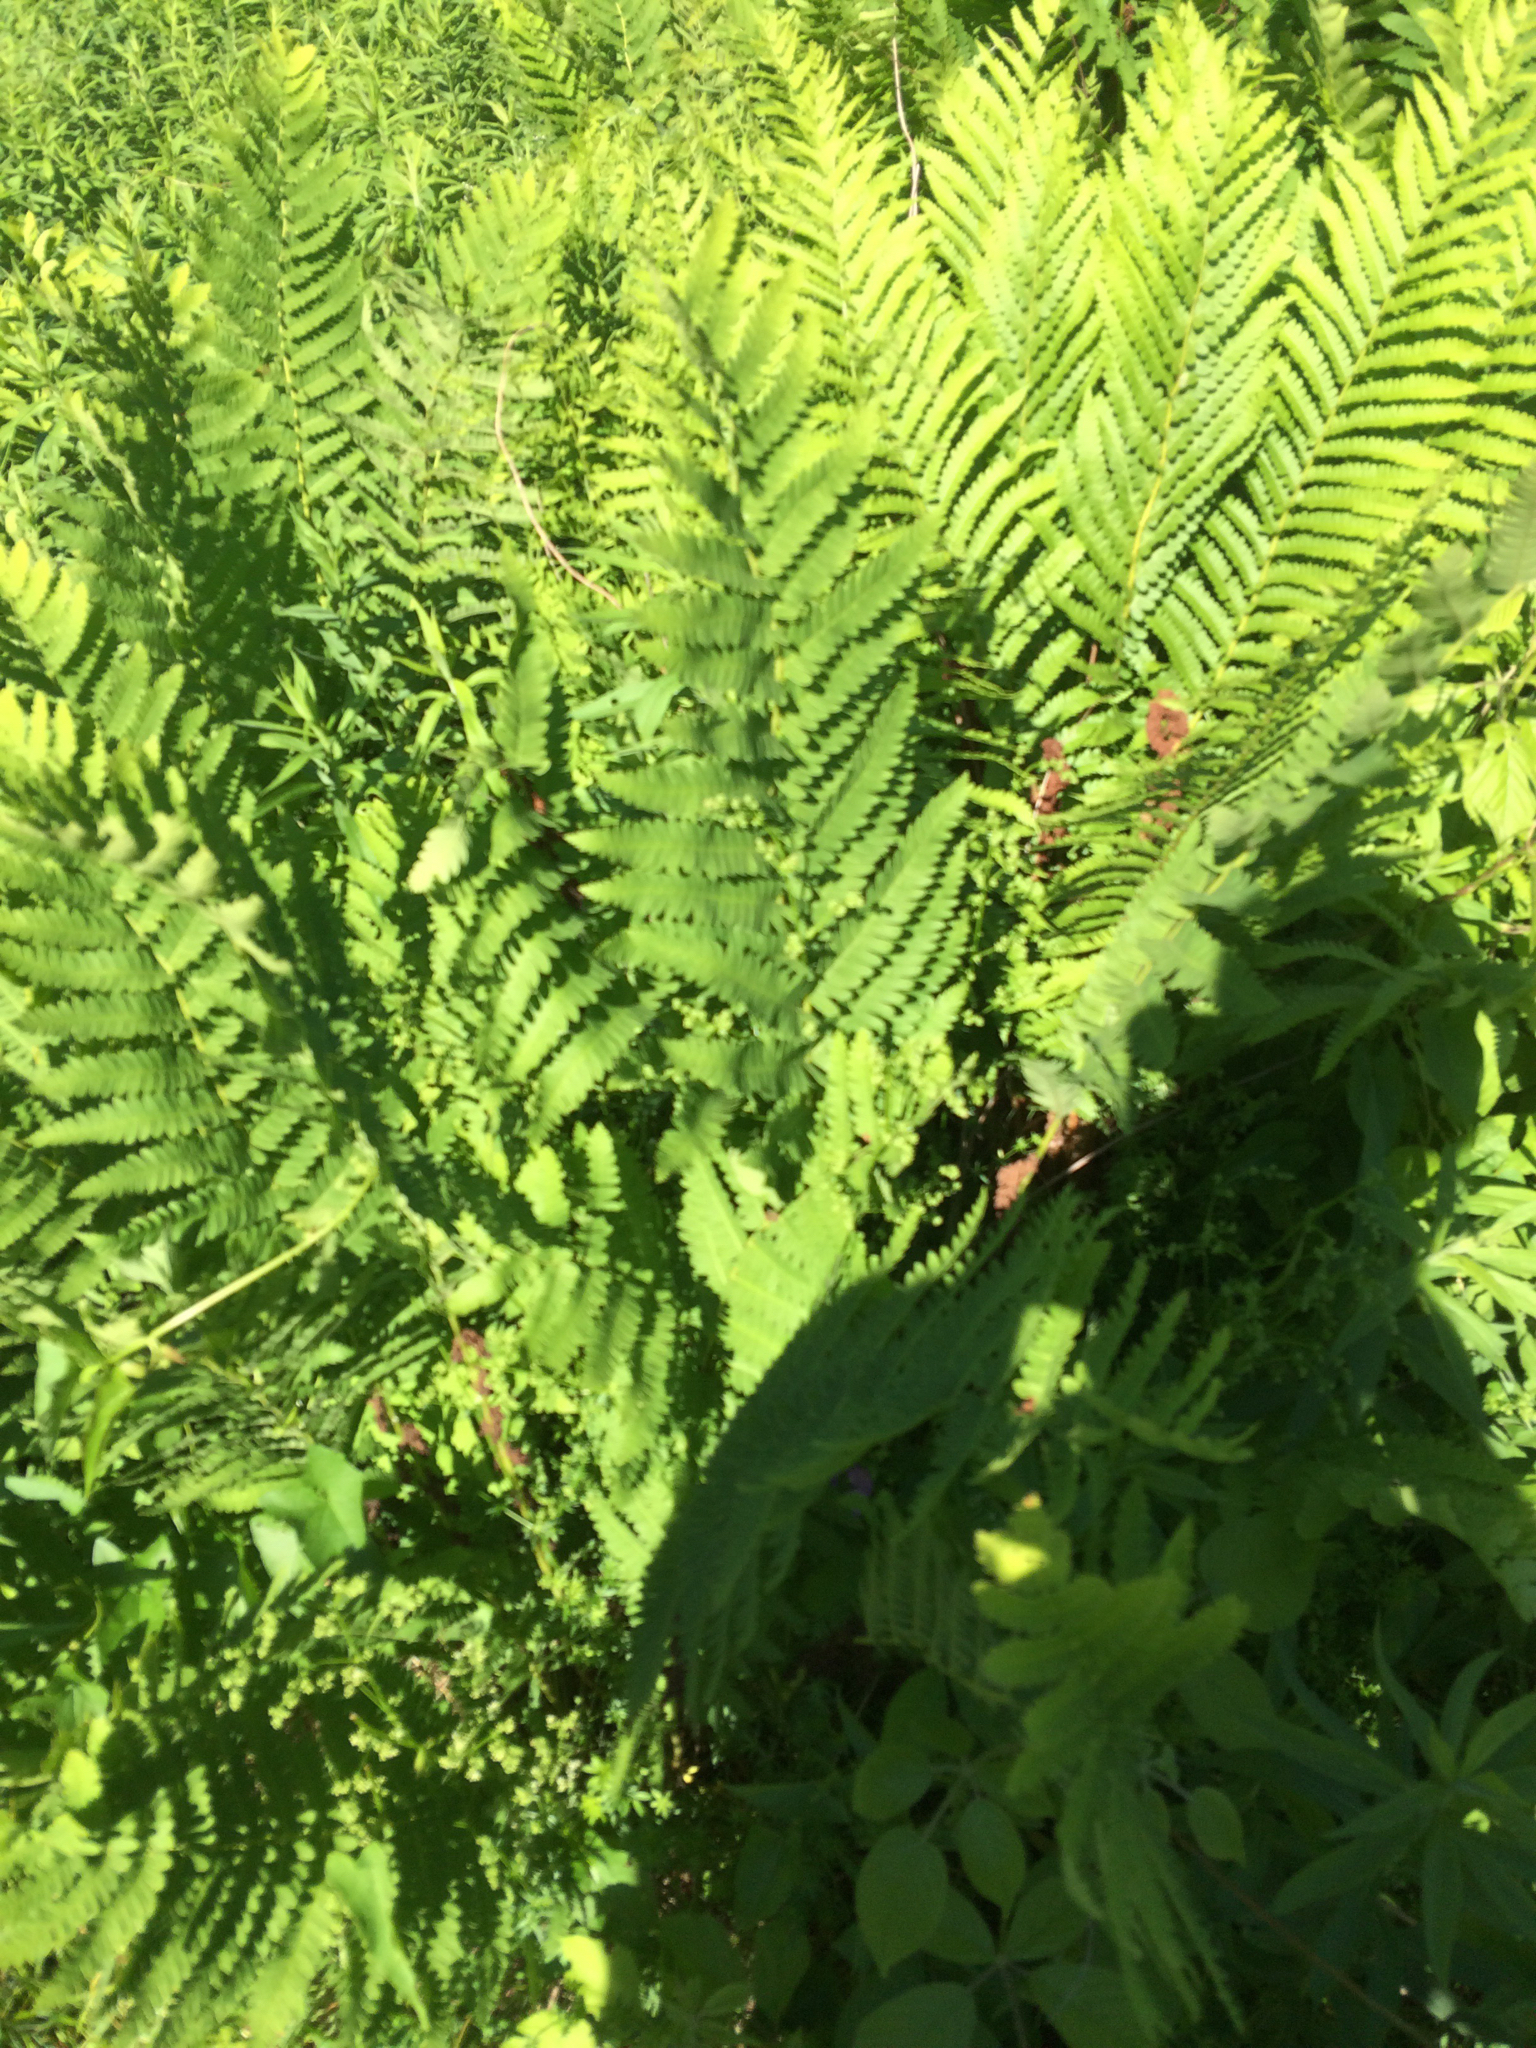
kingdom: Plantae
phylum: Tracheophyta
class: Polypodiopsida
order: Osmundales
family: Osmundaceae
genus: Claytosmunda
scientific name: Claytosmunda claytoniana
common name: Clayton's fern
